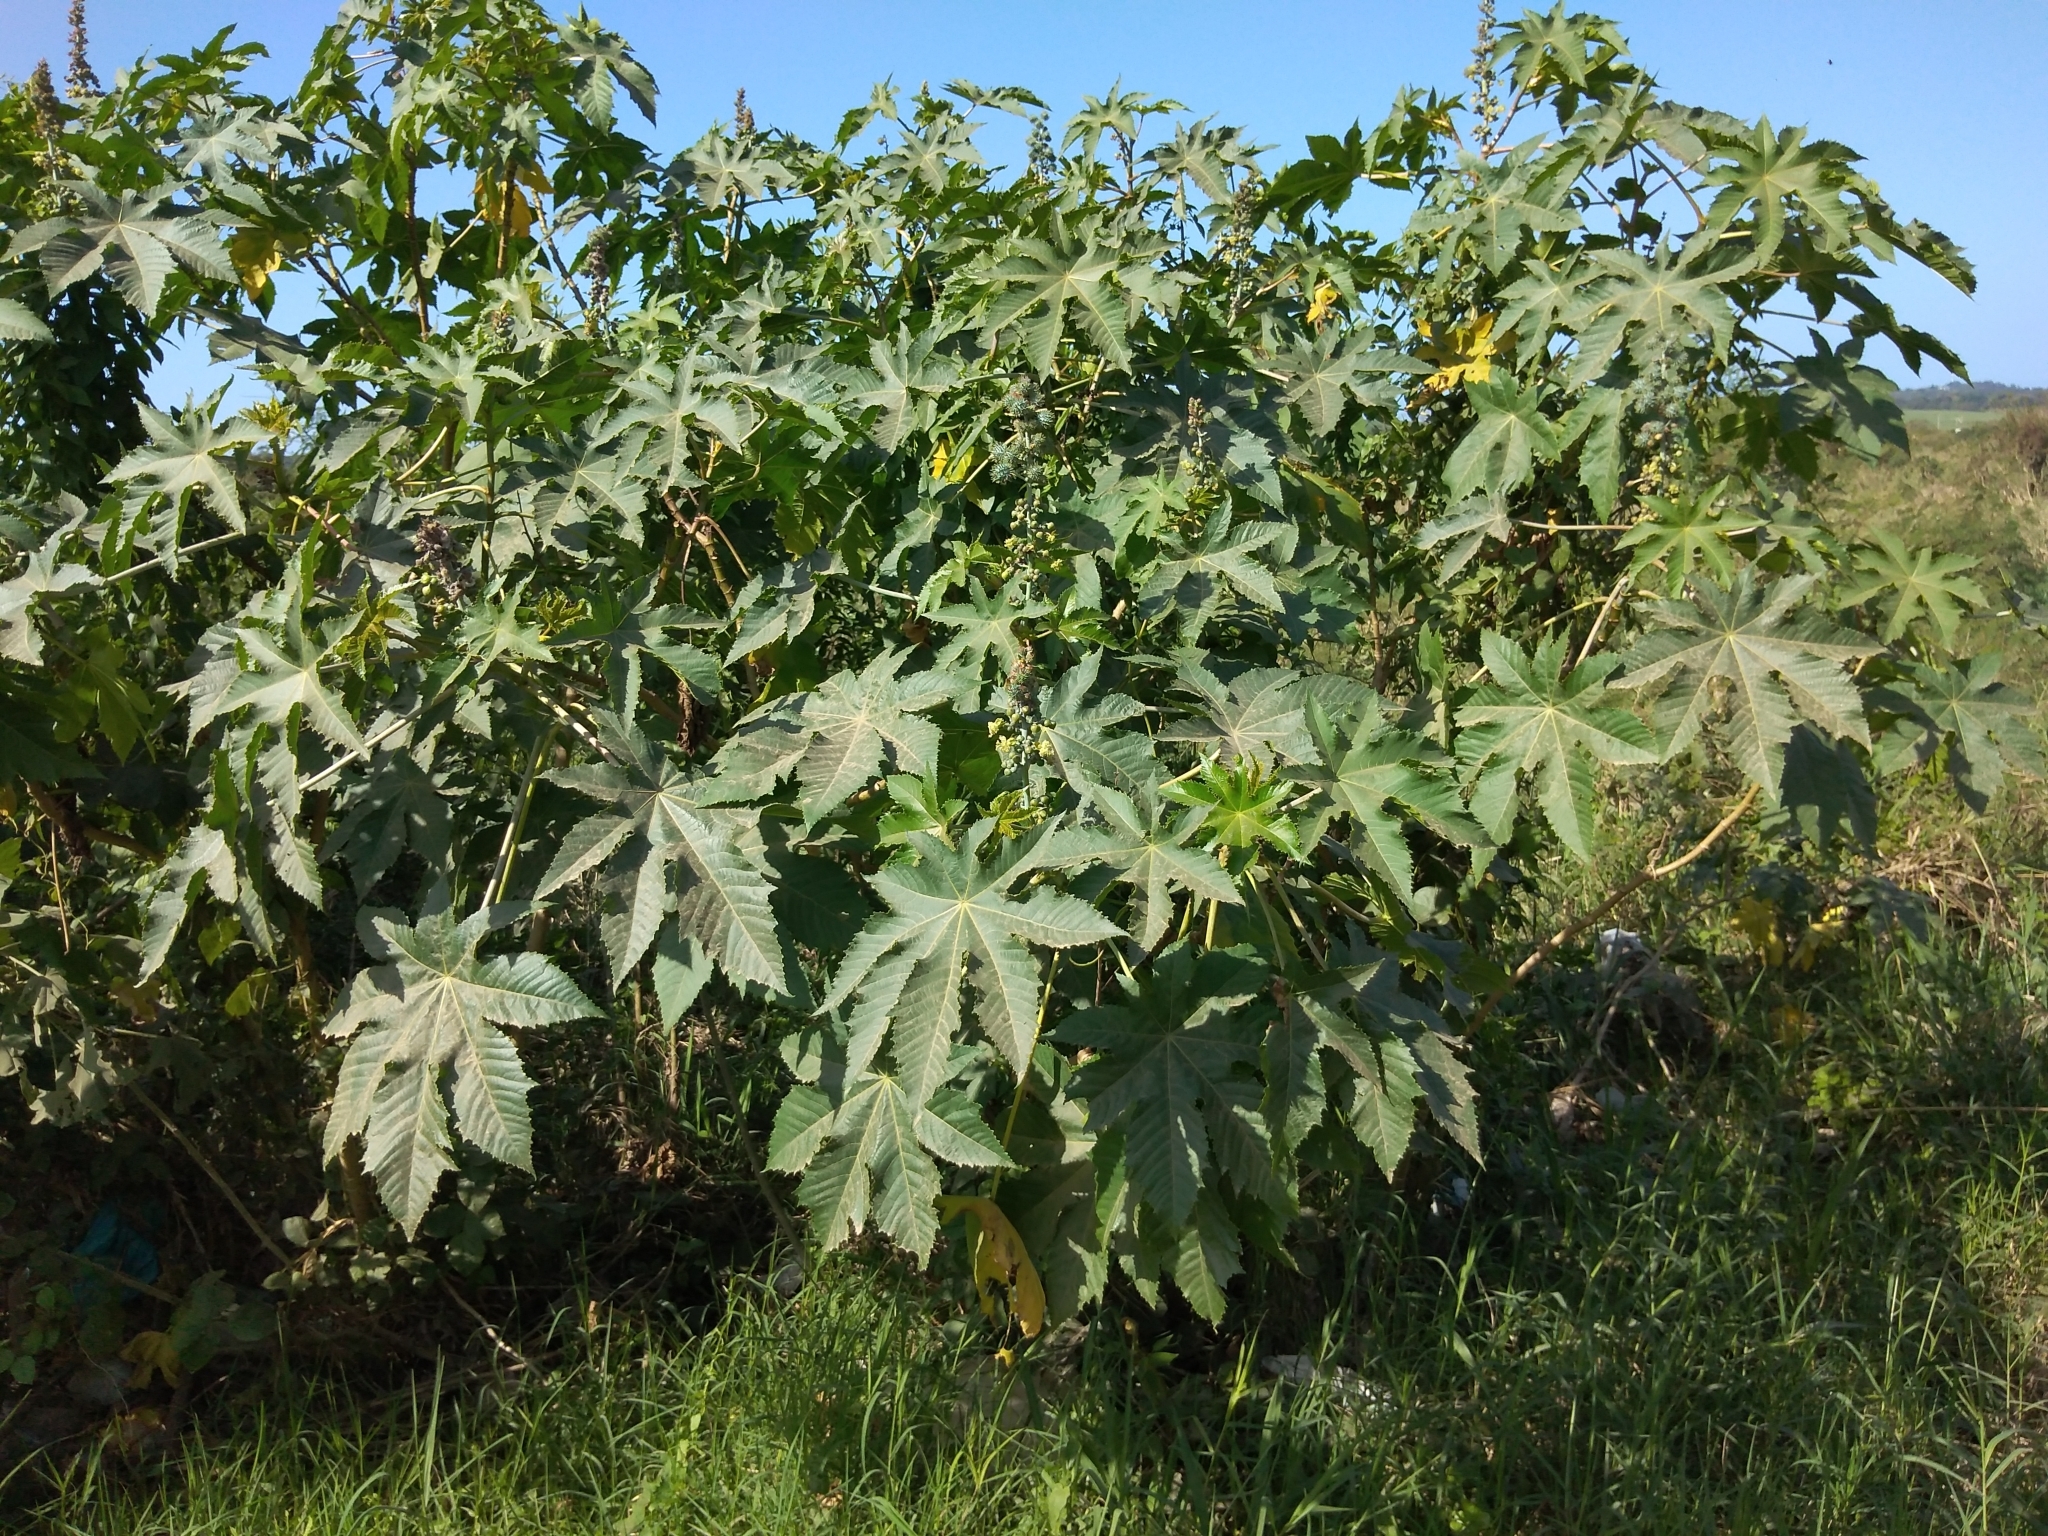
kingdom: Plantae
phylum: Tracheophyta
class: Magnoliopsida
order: Malpighiales
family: Euphorbiaceae
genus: Ricinus
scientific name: Ricinus communis
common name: Castor-oil-plant
